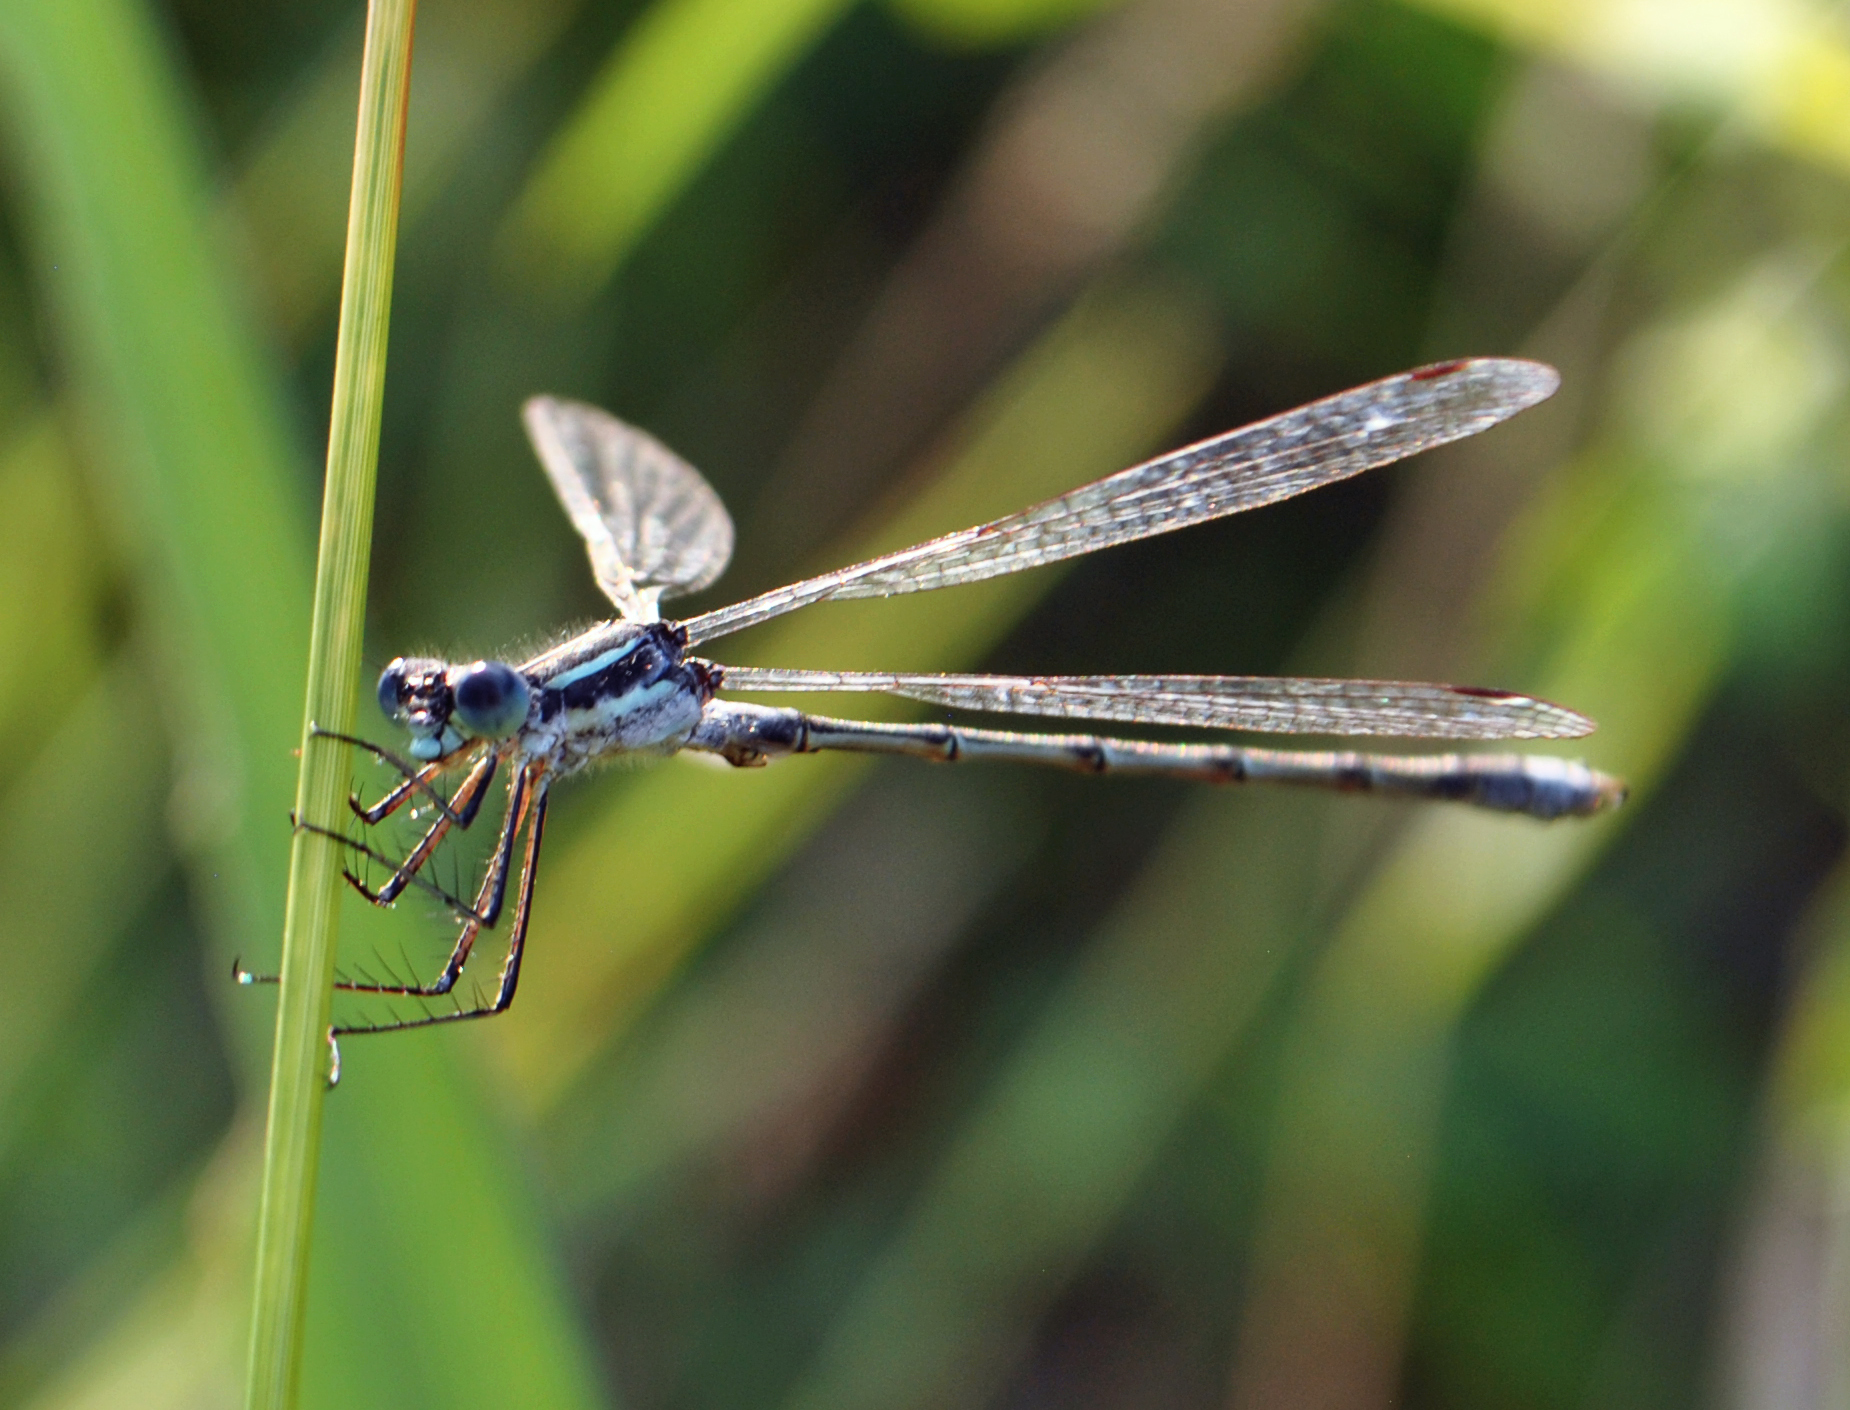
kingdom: Animalia
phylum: Arthropoda
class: Insecta
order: Odonata
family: Lestidae
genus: Lestes
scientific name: Lestes
